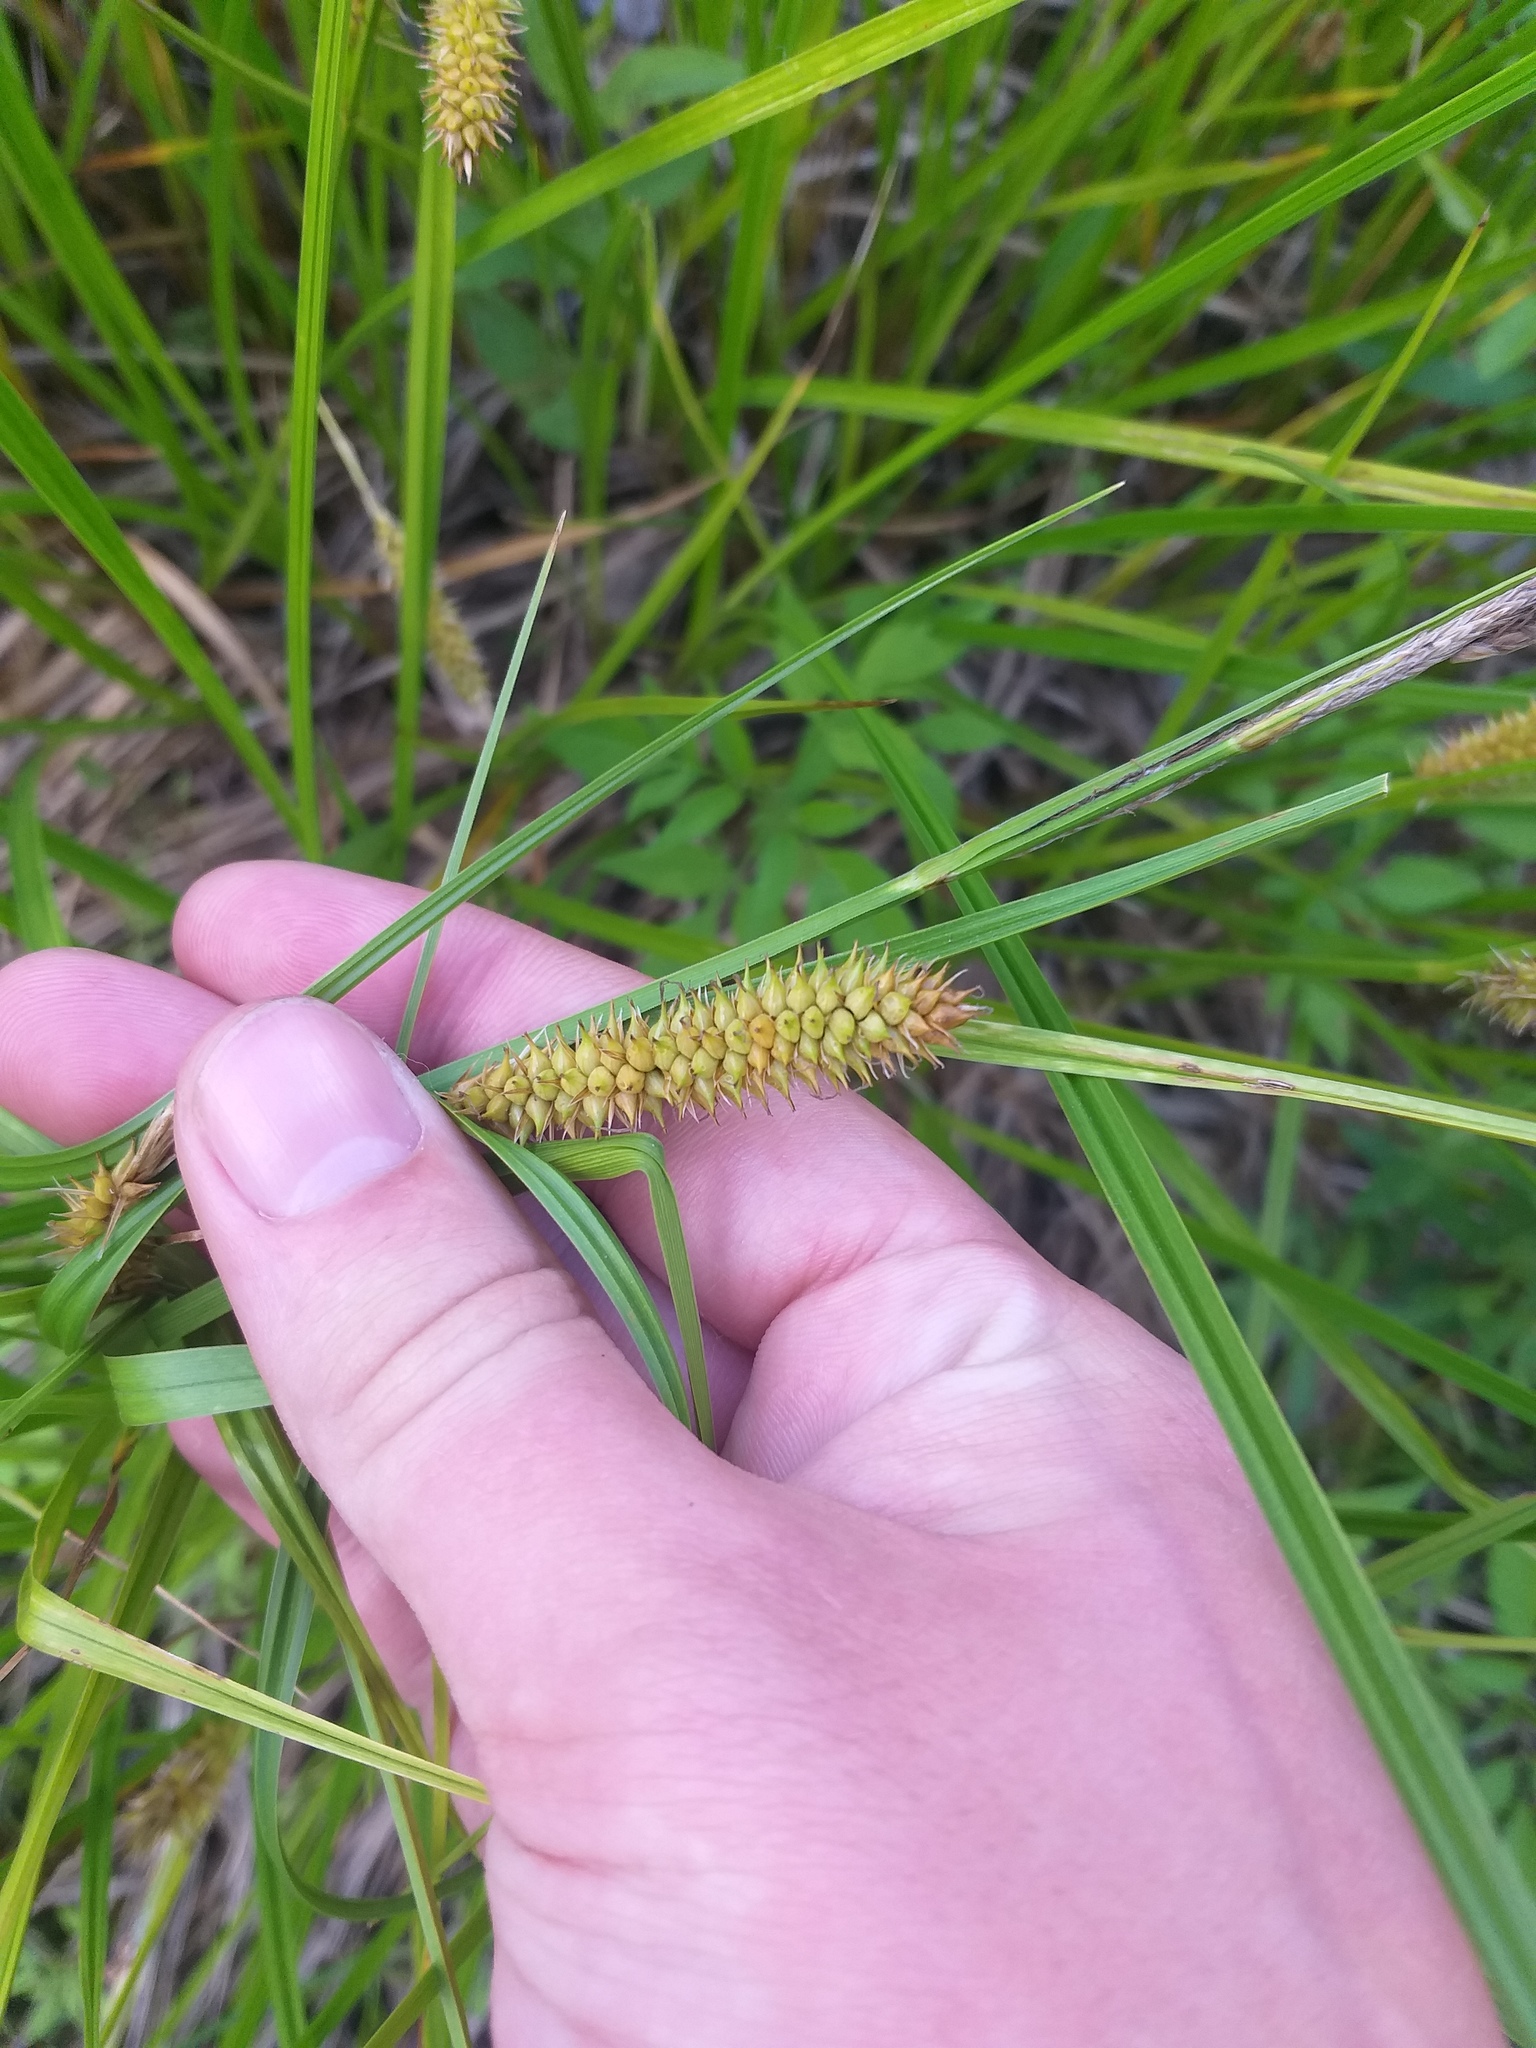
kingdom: Plantae
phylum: Tracheophyta
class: Liliopsida
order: Poales
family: Cyperaceae
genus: Carex
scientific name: Carex vesicaria
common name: Bladder-sedge
